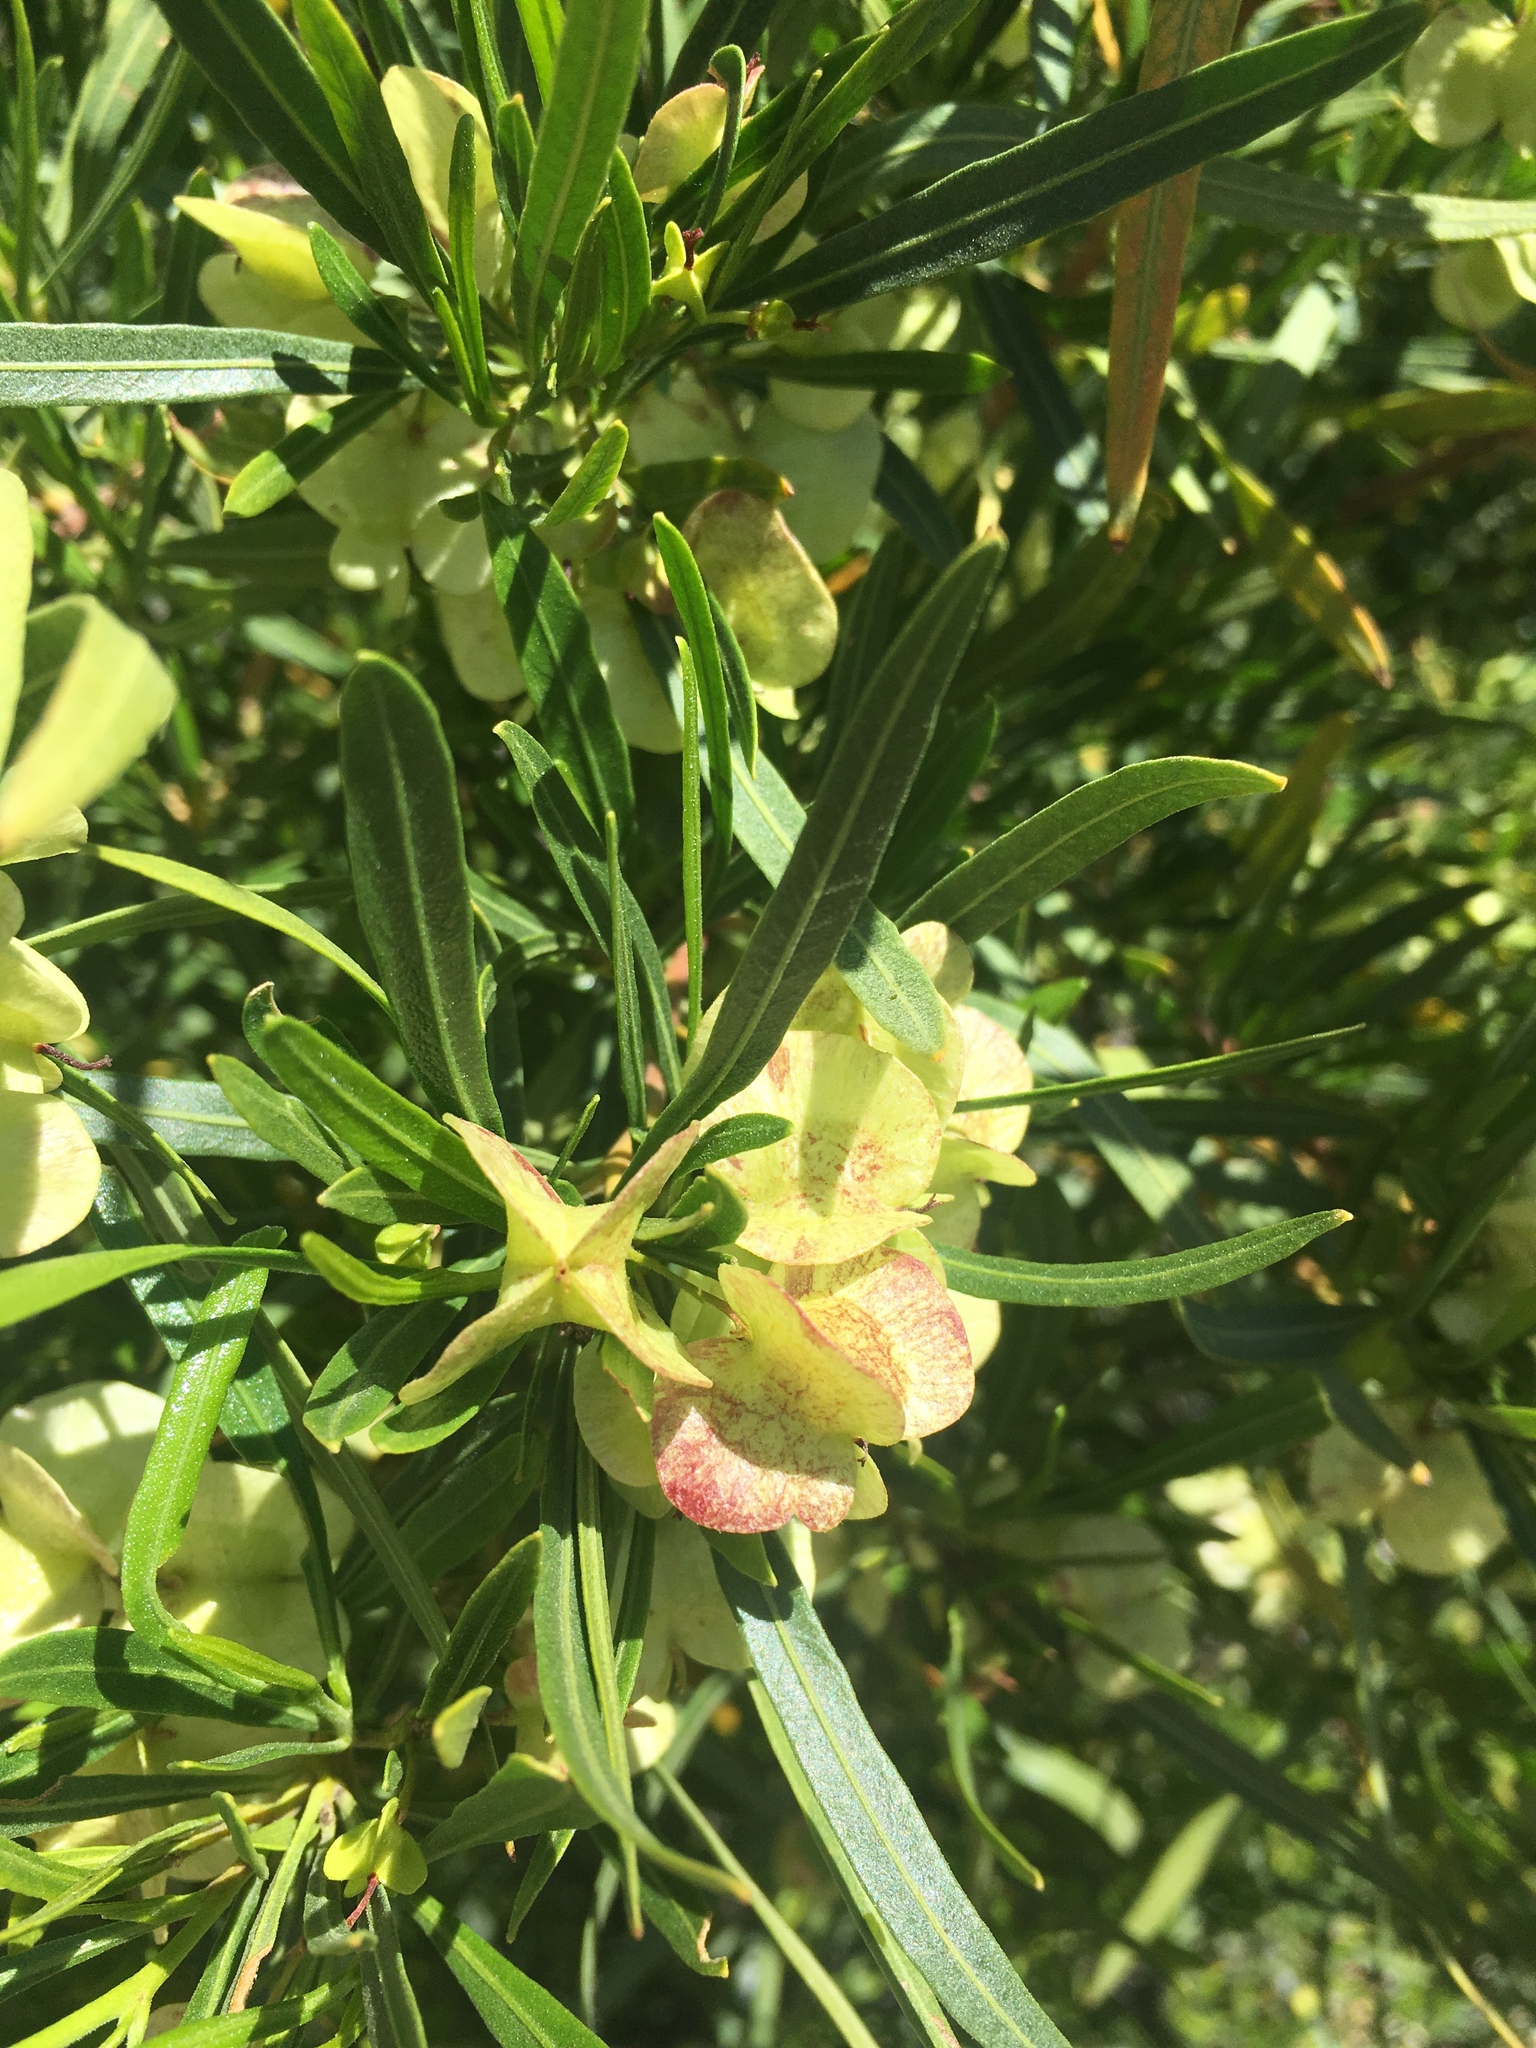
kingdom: Plantae
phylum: Tracheophyta
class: Magnoliopsida
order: Sapindales
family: Sapindaceae
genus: Dodonaea
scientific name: Dodonaea viscosa
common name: Hopbush
